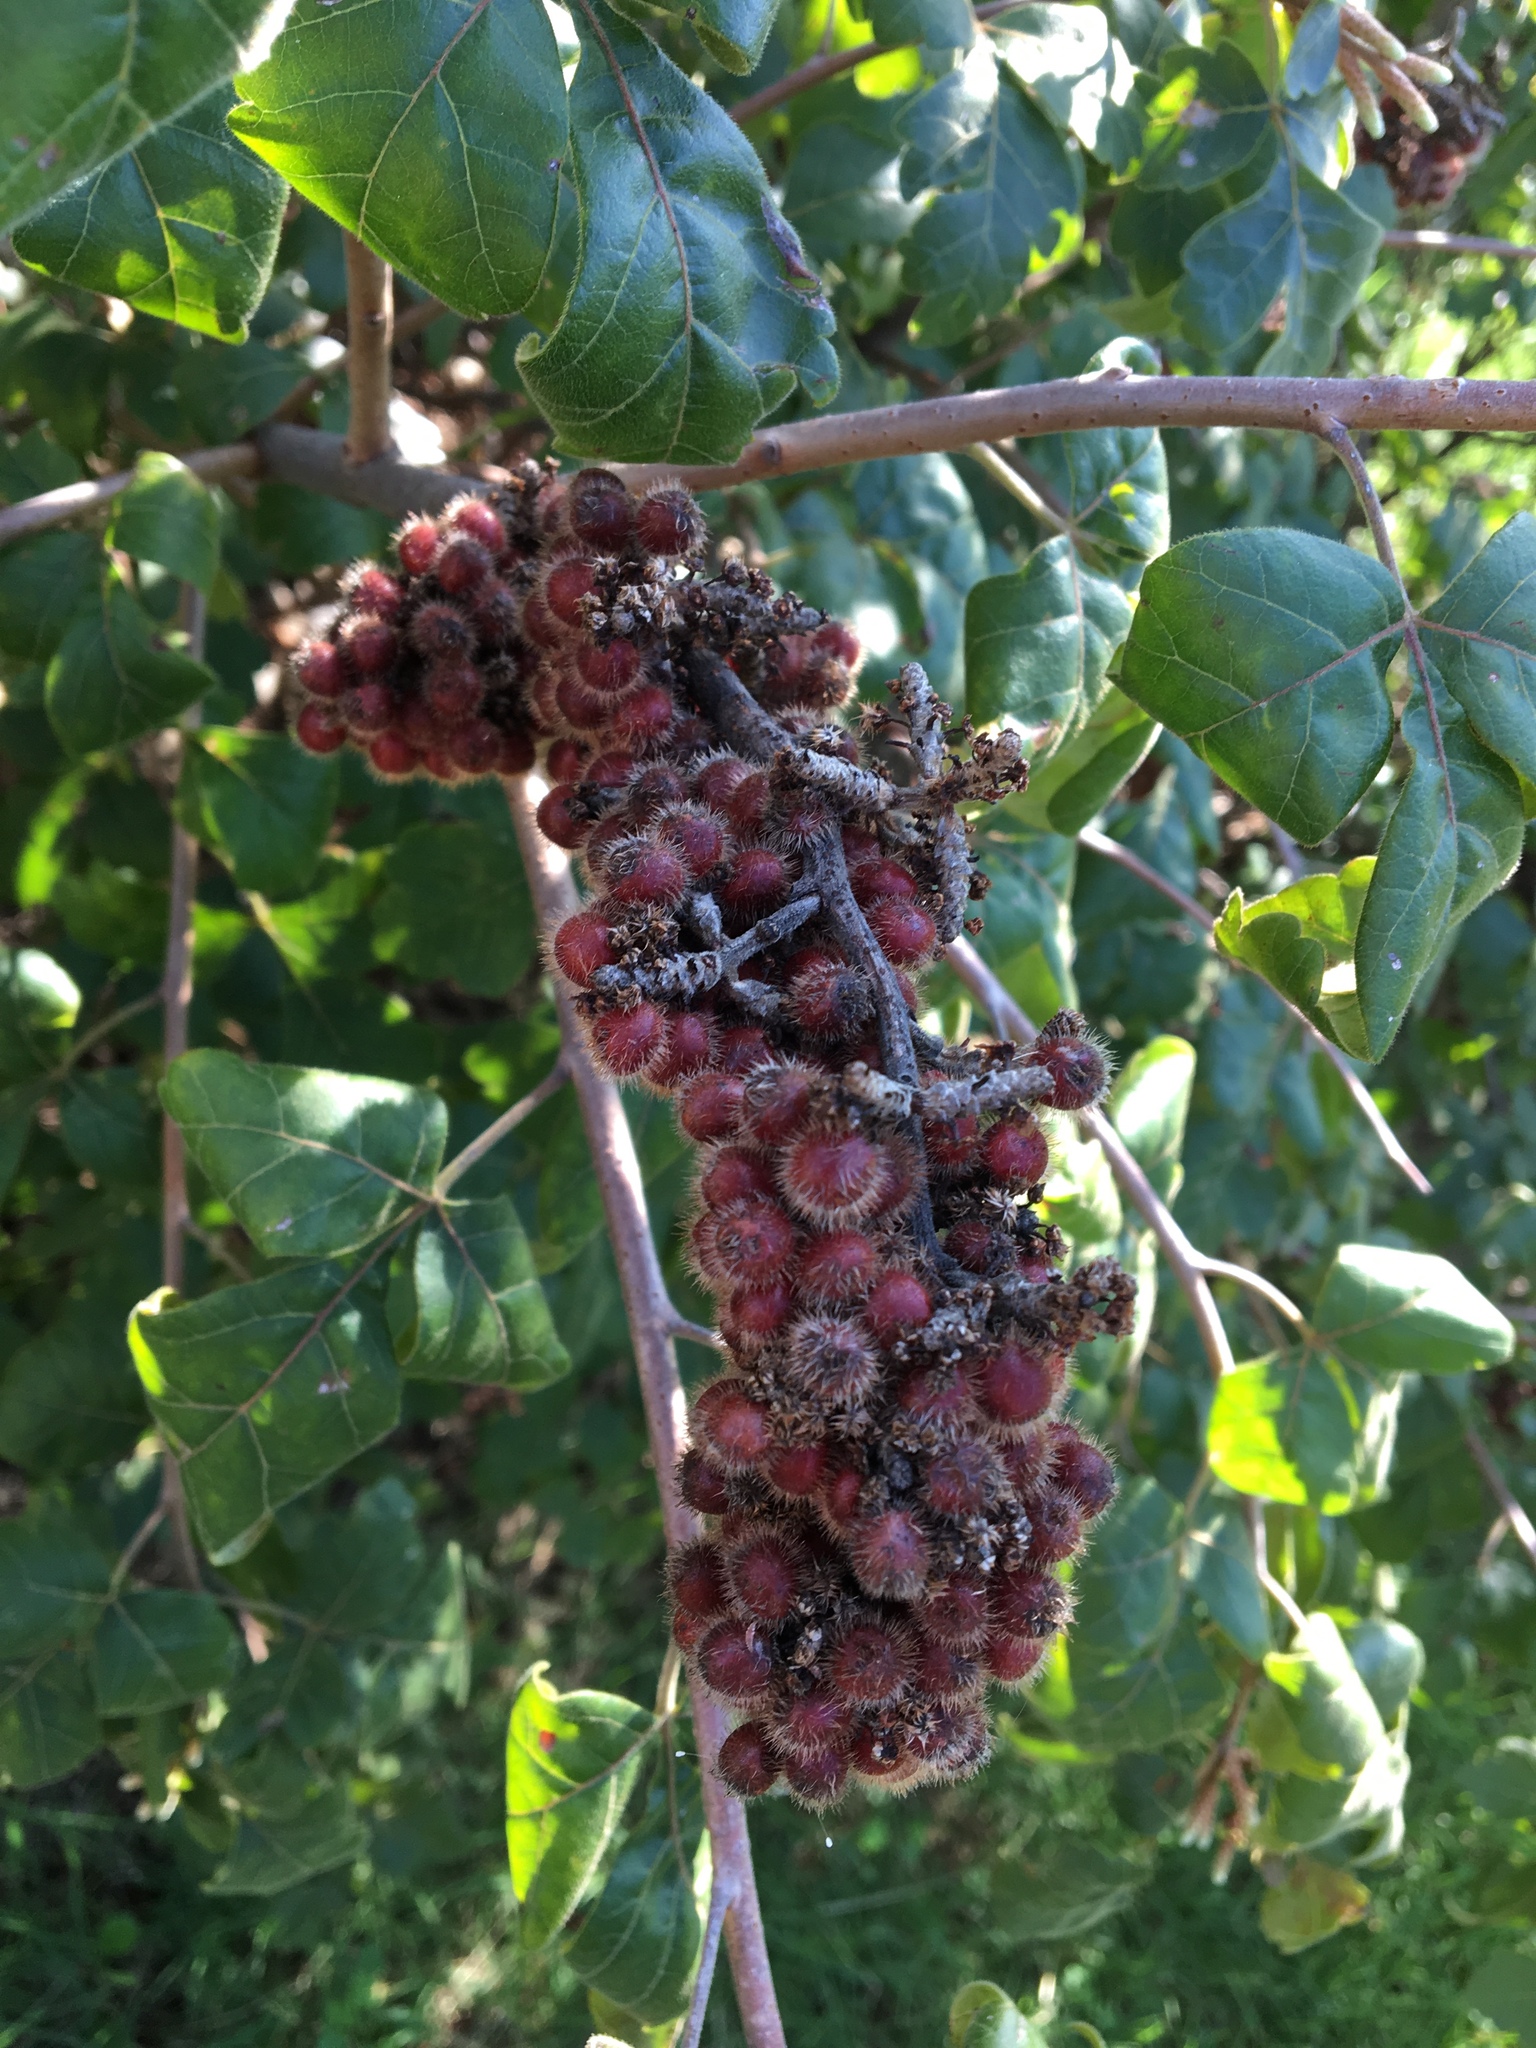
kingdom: Plantae
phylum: Tracheophyta
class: Magnoliopsida
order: Sapindales
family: Anacardiaceae
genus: Rhus
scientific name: Rhus aromatica
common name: Aromatic sumac
